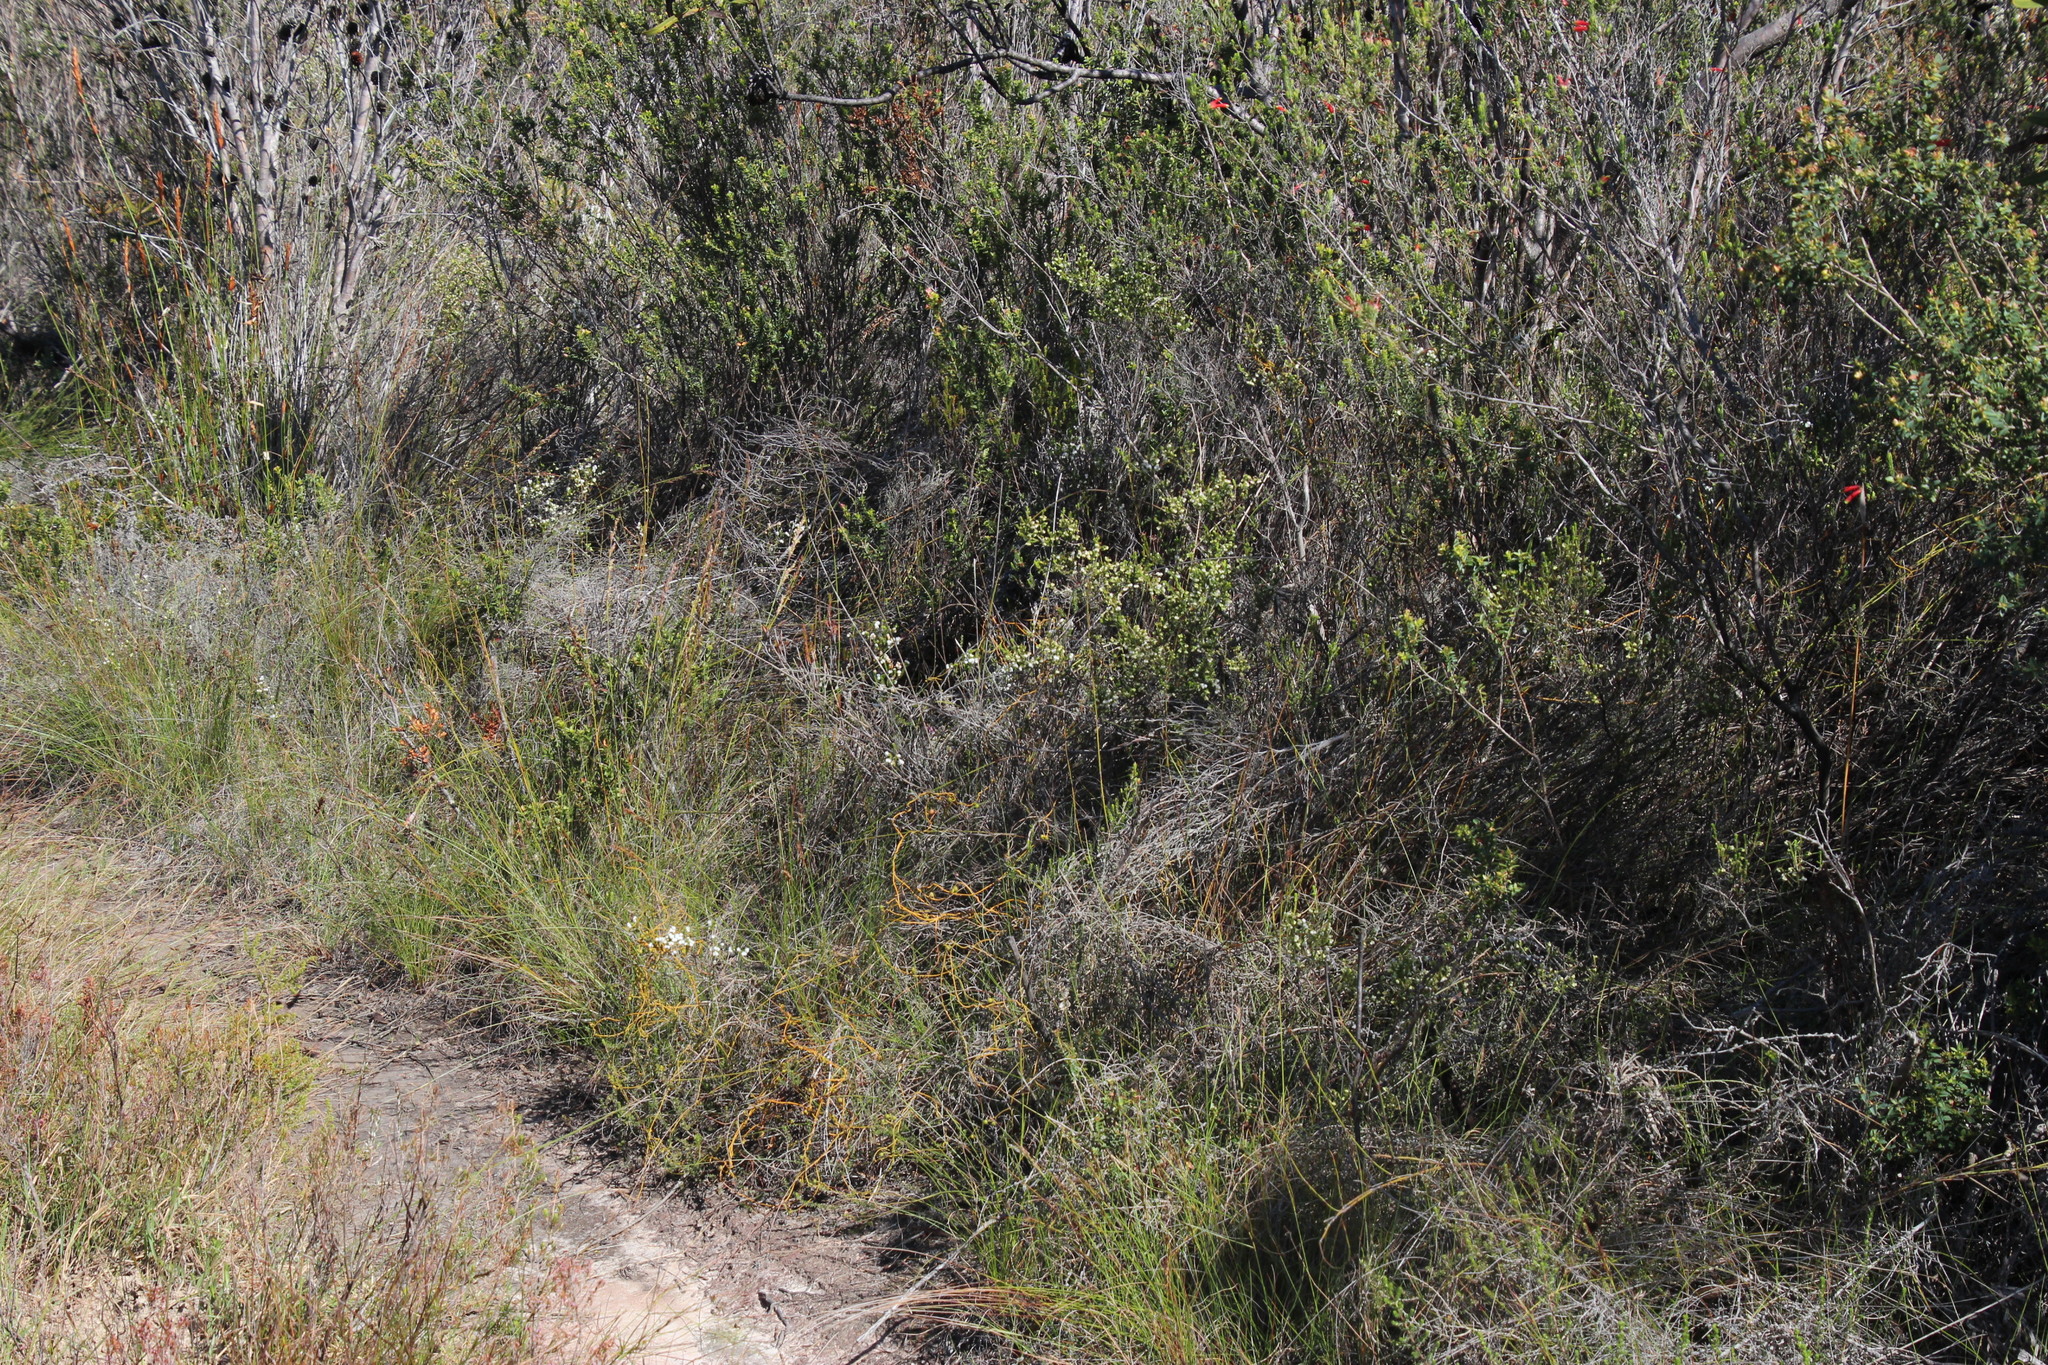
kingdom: Plantae
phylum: Tracheophyta
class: Magnoliopsida
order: Ericales
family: Ericaceae
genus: Erica
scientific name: Erica formosa
